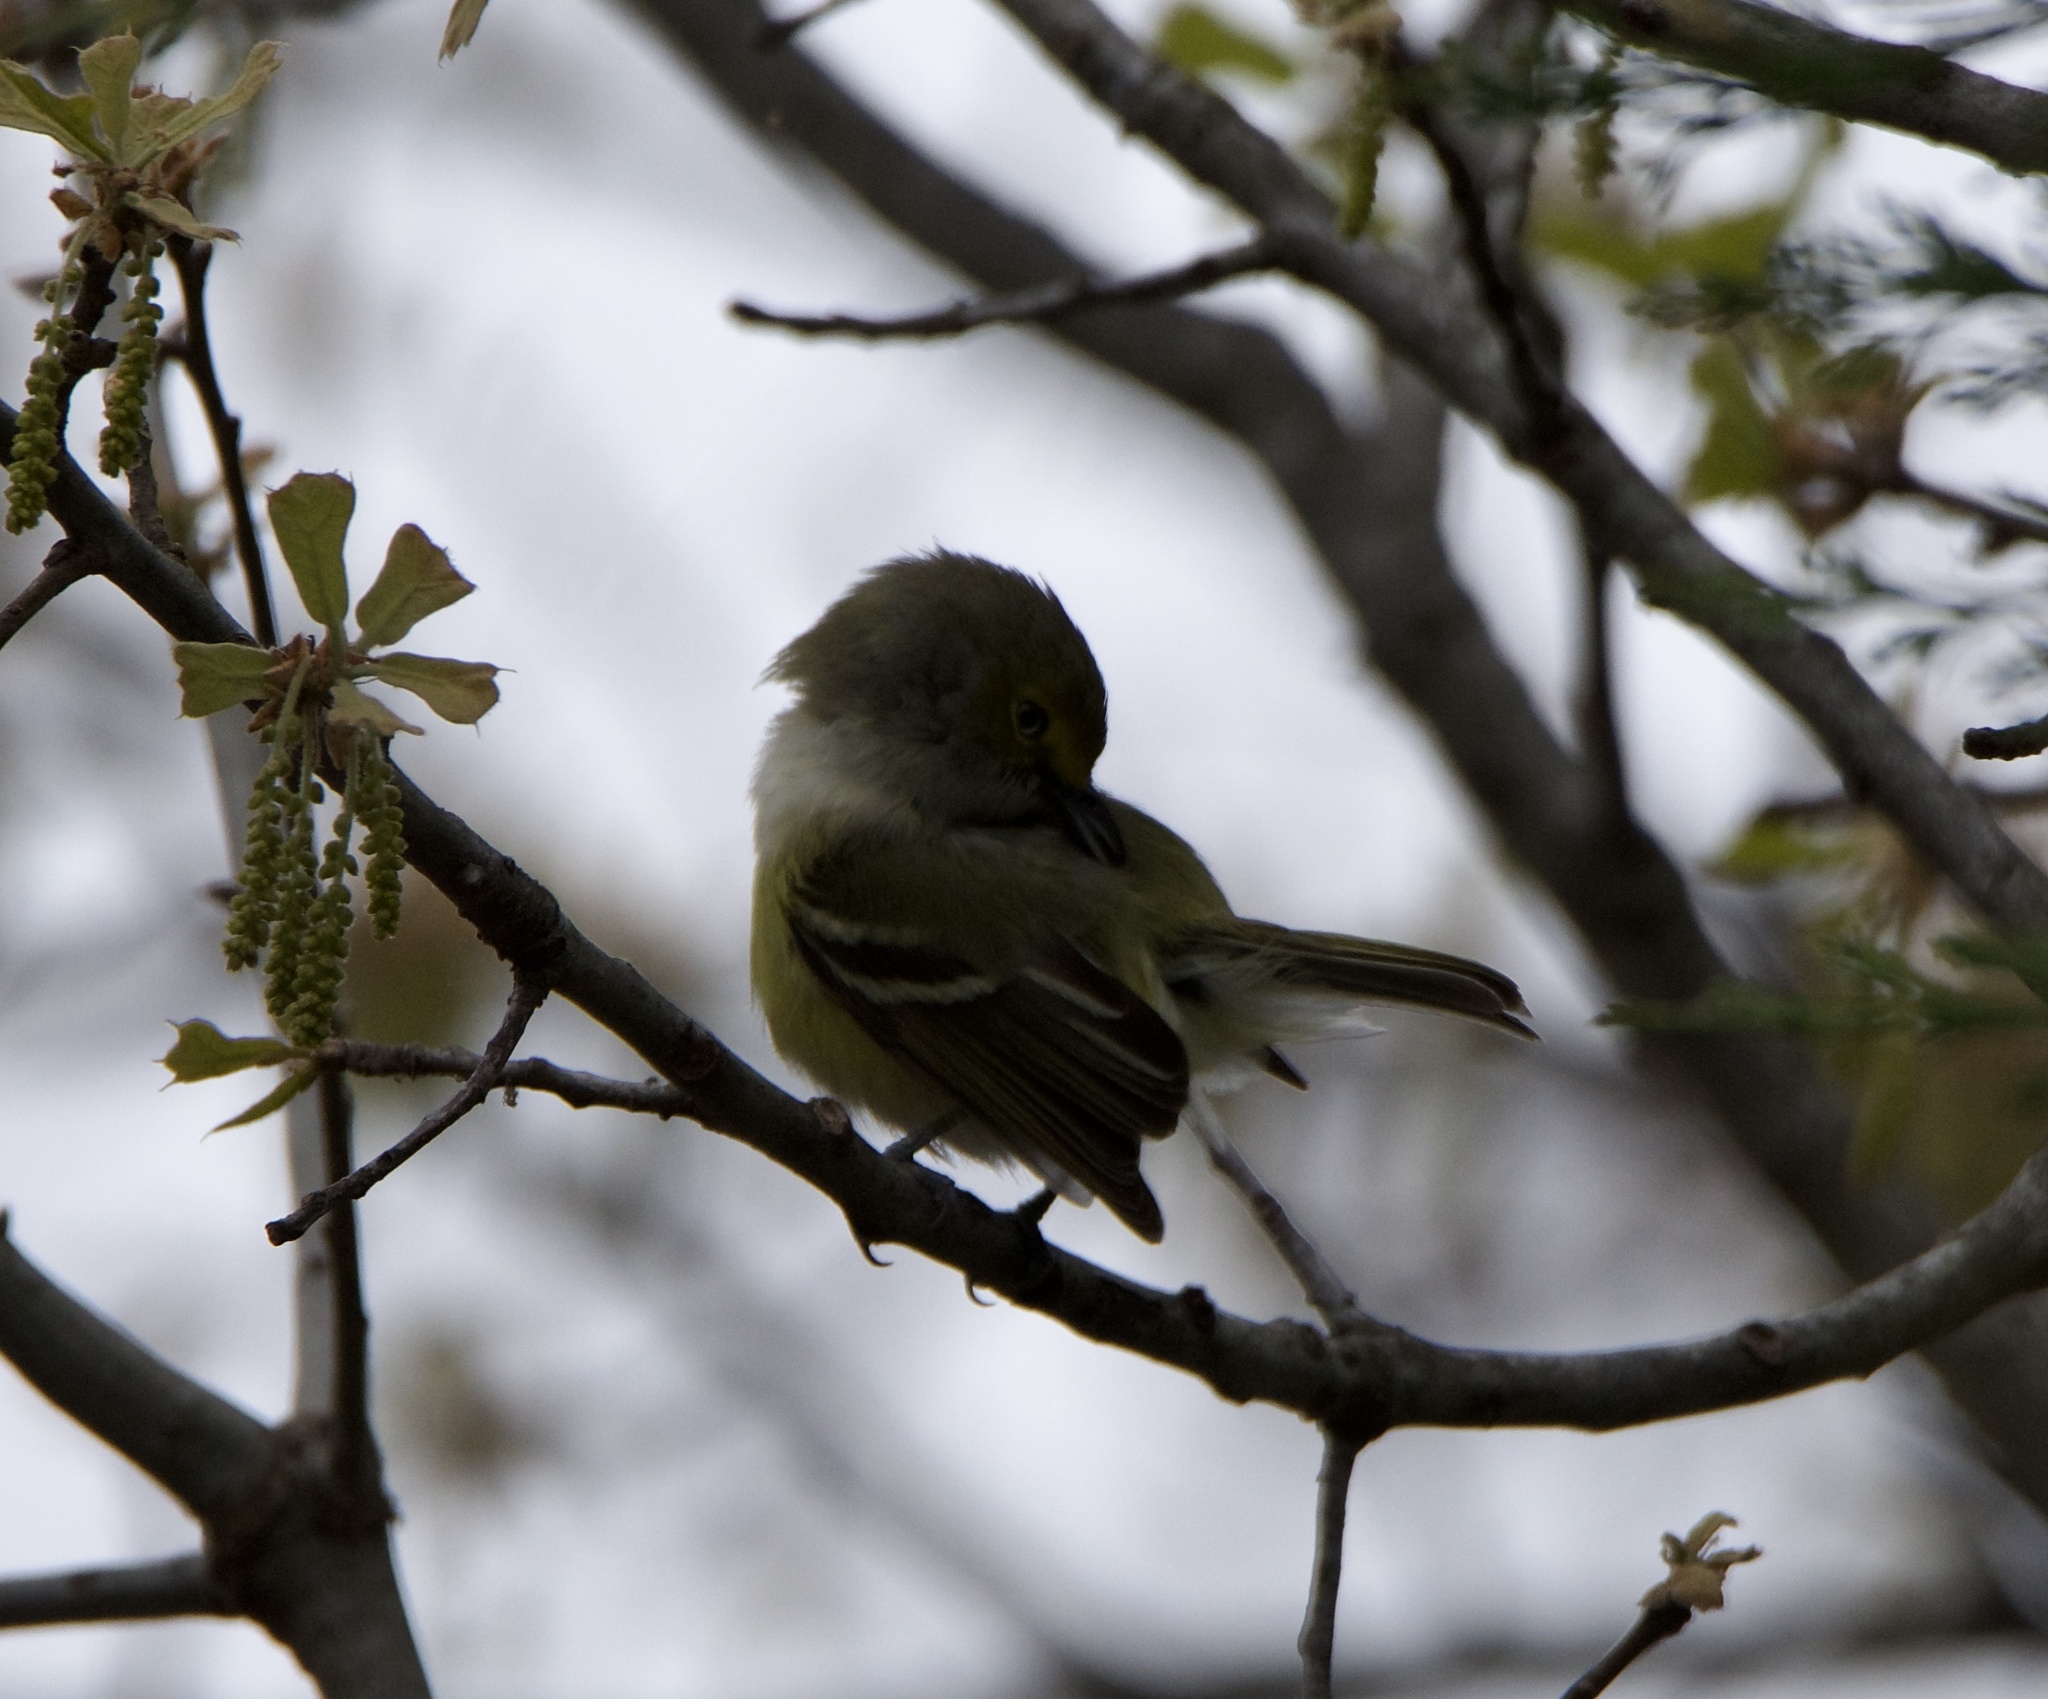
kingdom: Animalia
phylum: Chordata
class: Aves
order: Passeriformes
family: Vireonidae
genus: Vireo
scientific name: Vireo griseus
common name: White-eyed vireo
